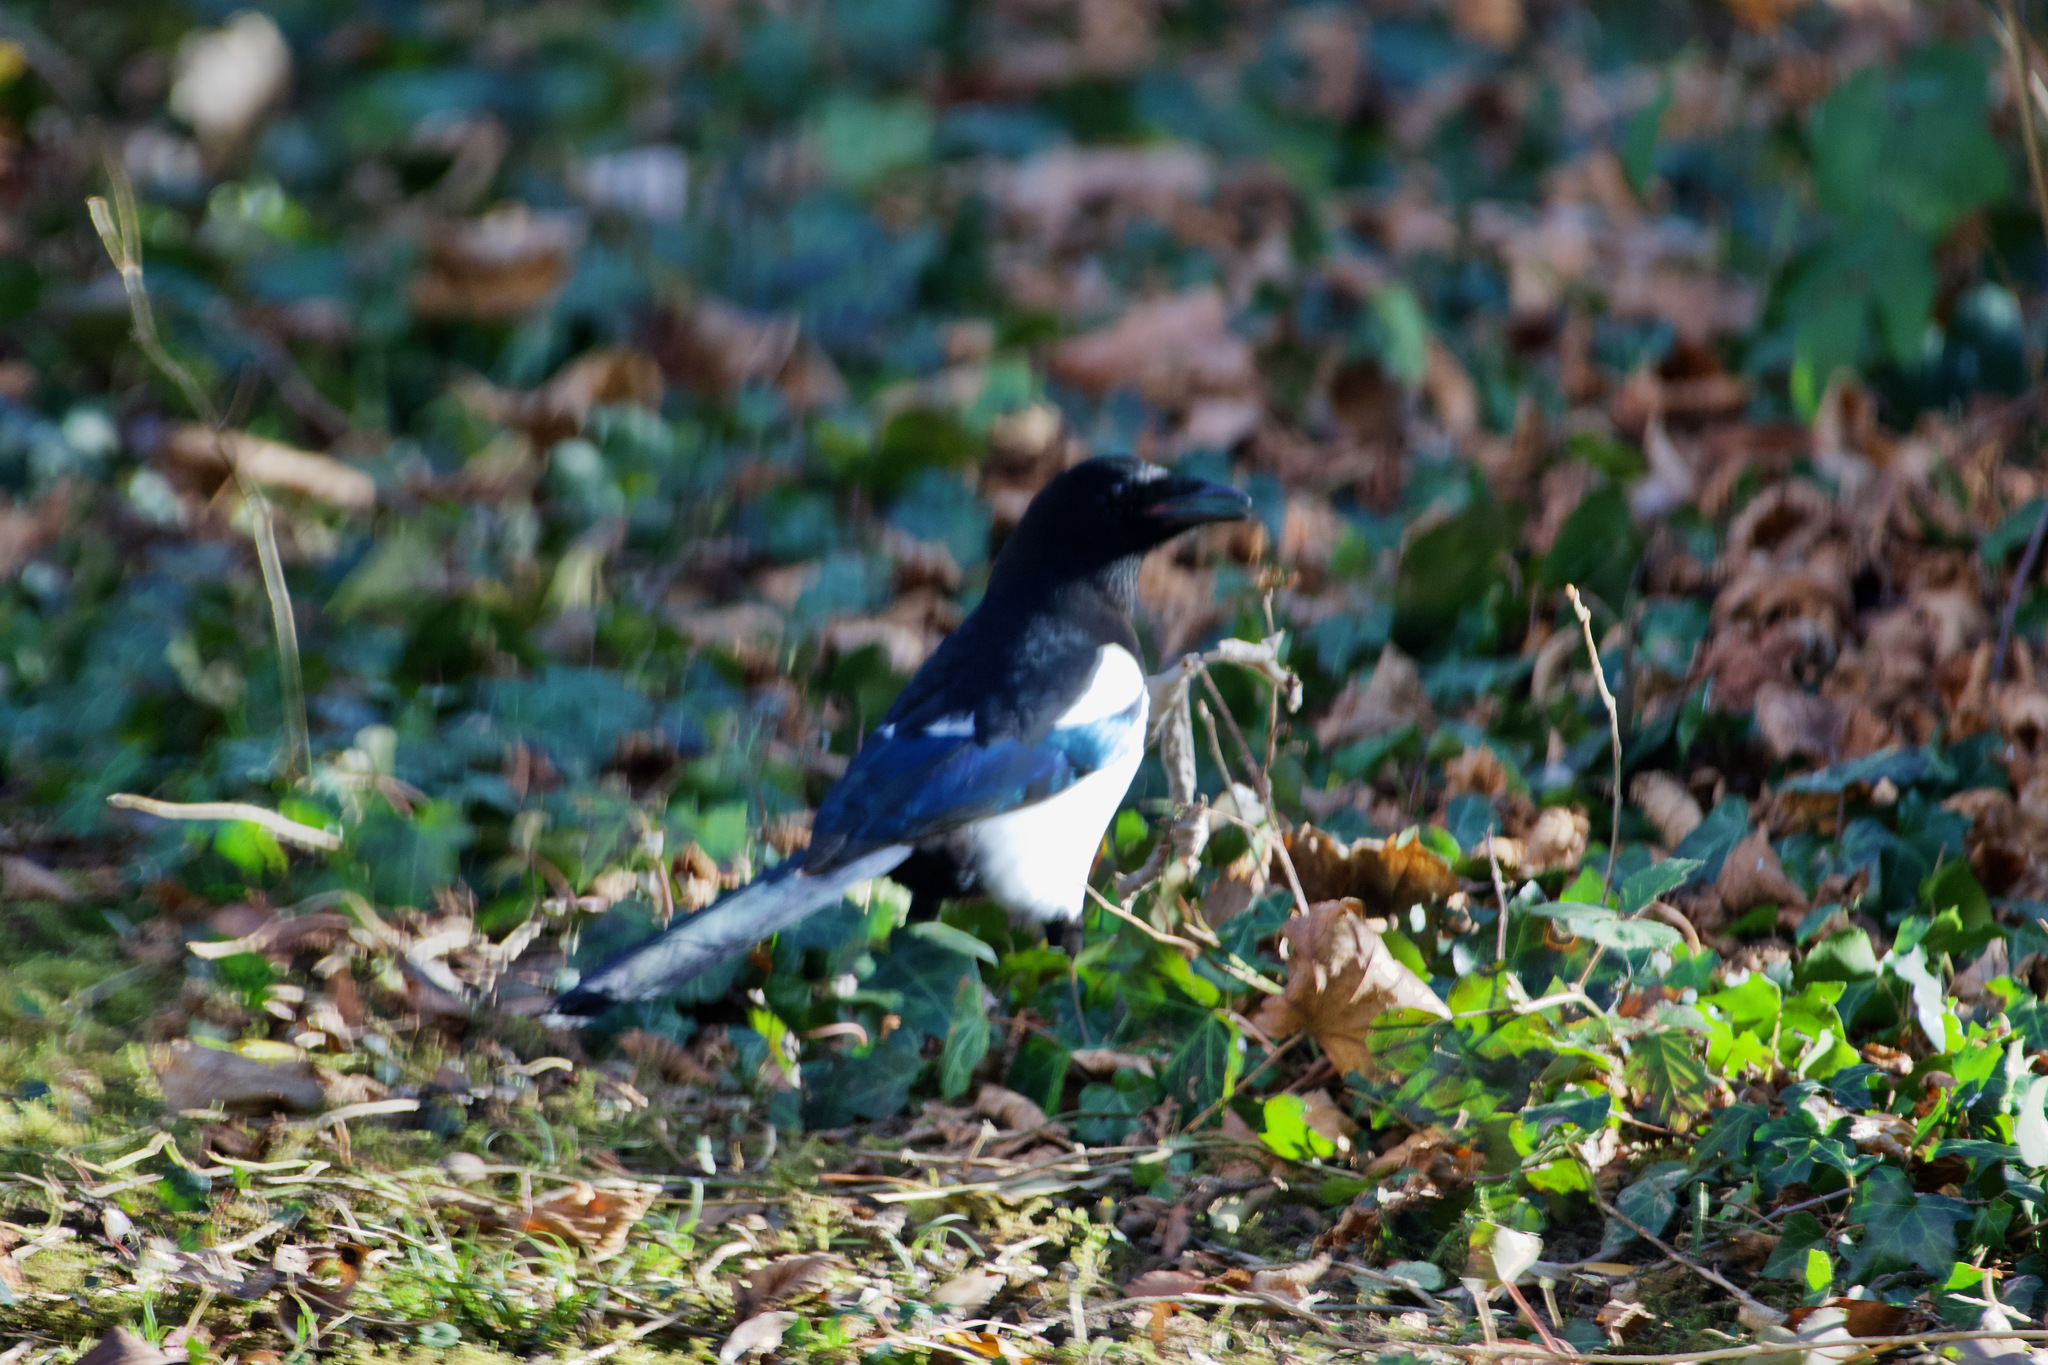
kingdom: Animalia
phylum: Chordata
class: Aves
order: Passeriformes
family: Corvidae
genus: Pica
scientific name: Pica pica
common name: Eurasian magpie
